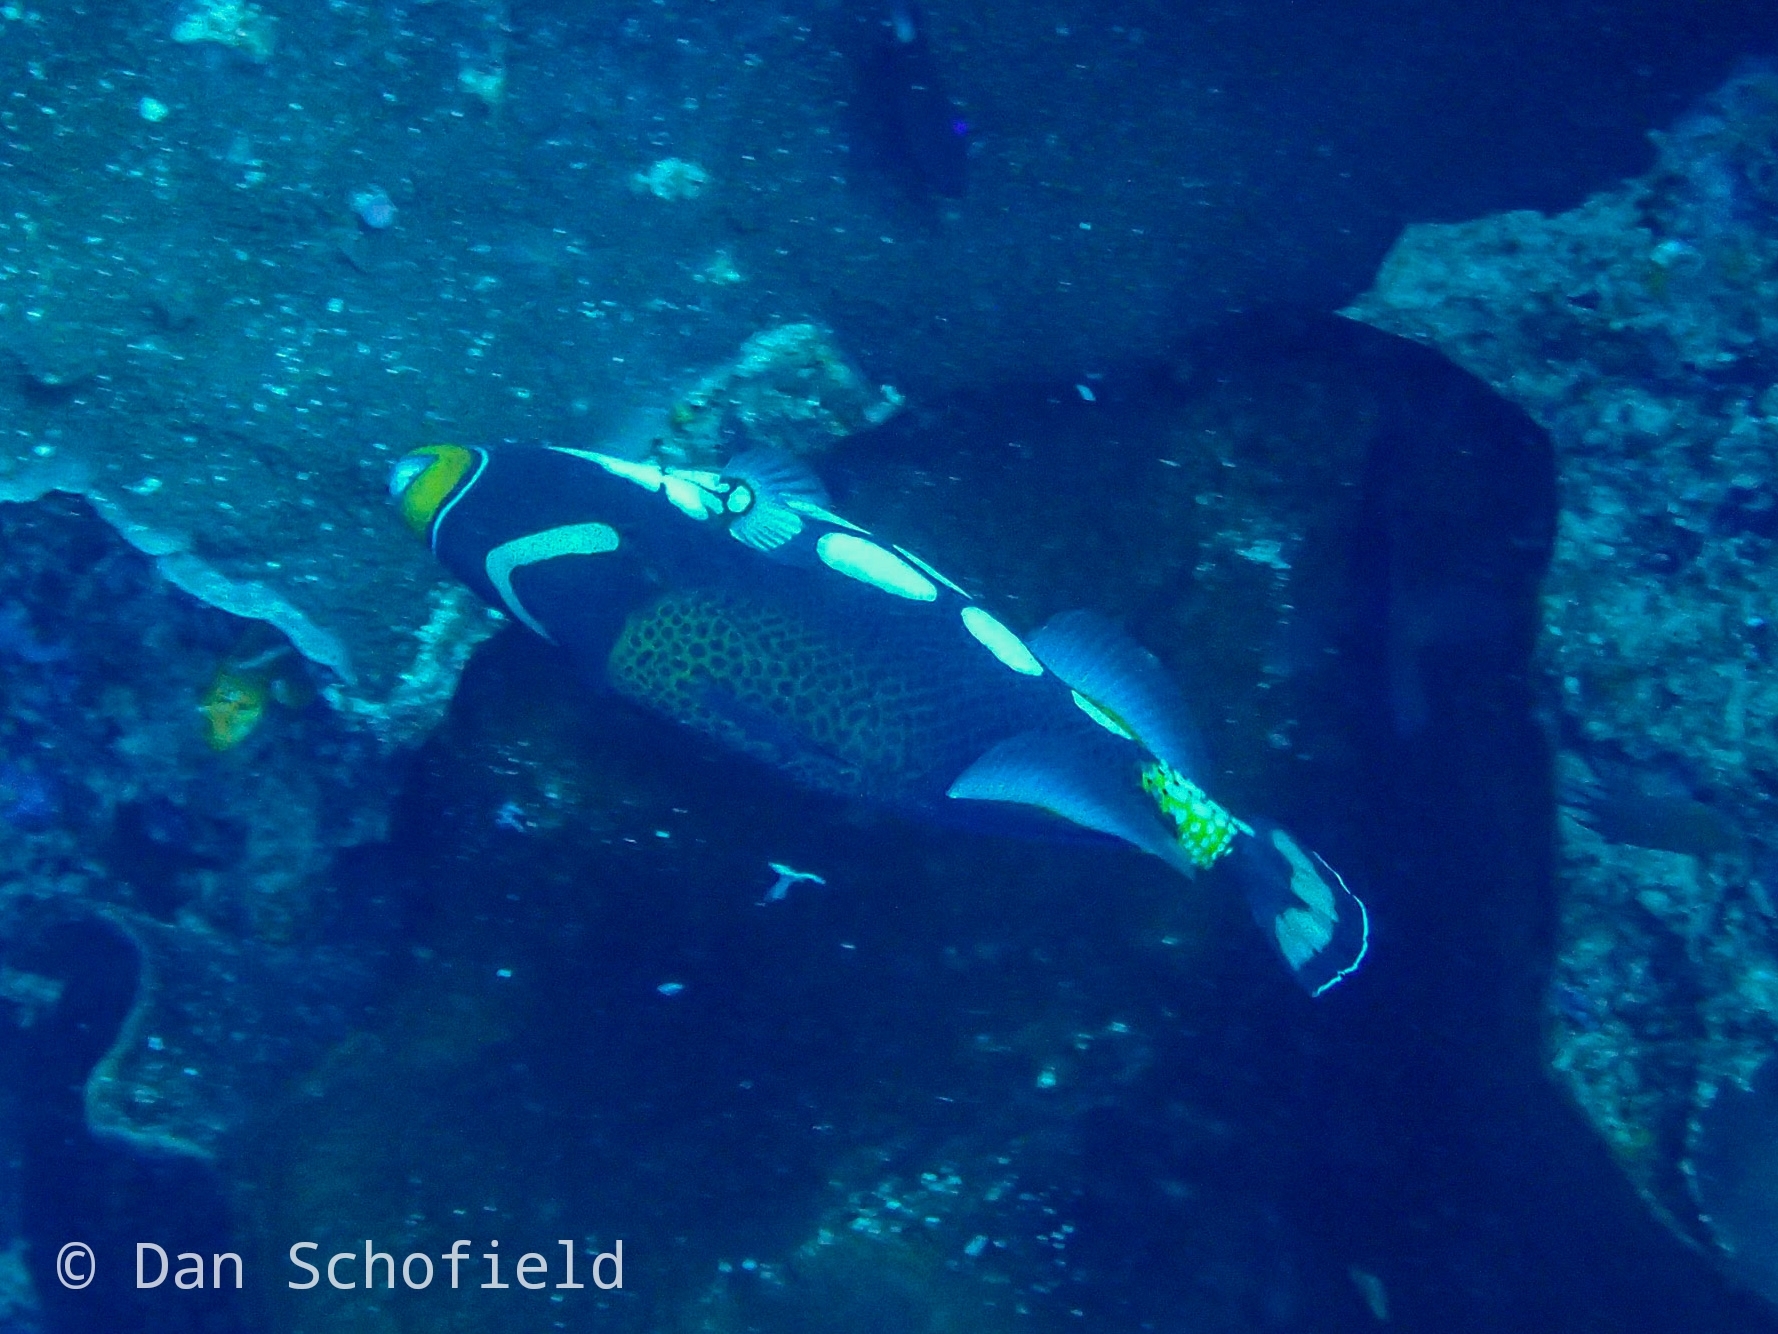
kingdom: Animalia
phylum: Chordata
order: Tetraodontiformes
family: Balistidae
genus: Balistoides
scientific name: Balistoides conspicillum
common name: Clown triggerfish
